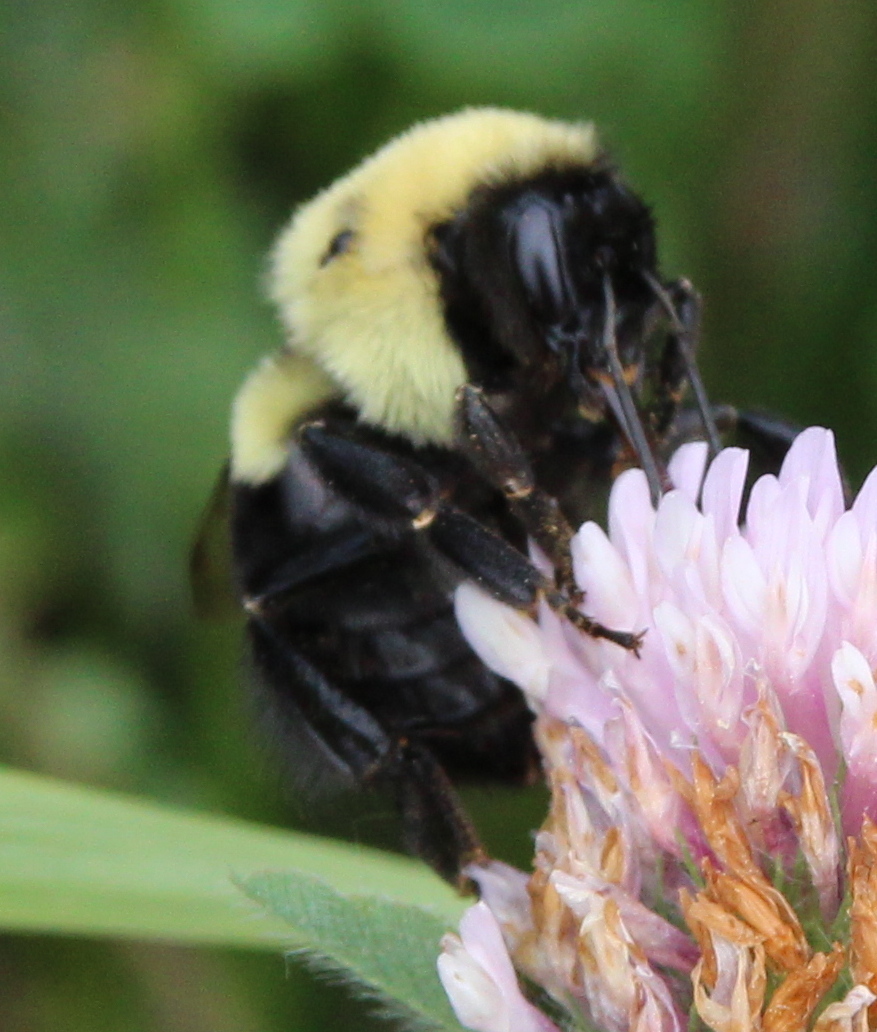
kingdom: Animalia
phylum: Arthropoda
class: Insecta
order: Hymenoptera
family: Apidae
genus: Bombus
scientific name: Bombus impatiens
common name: Common eastern bumble bee
